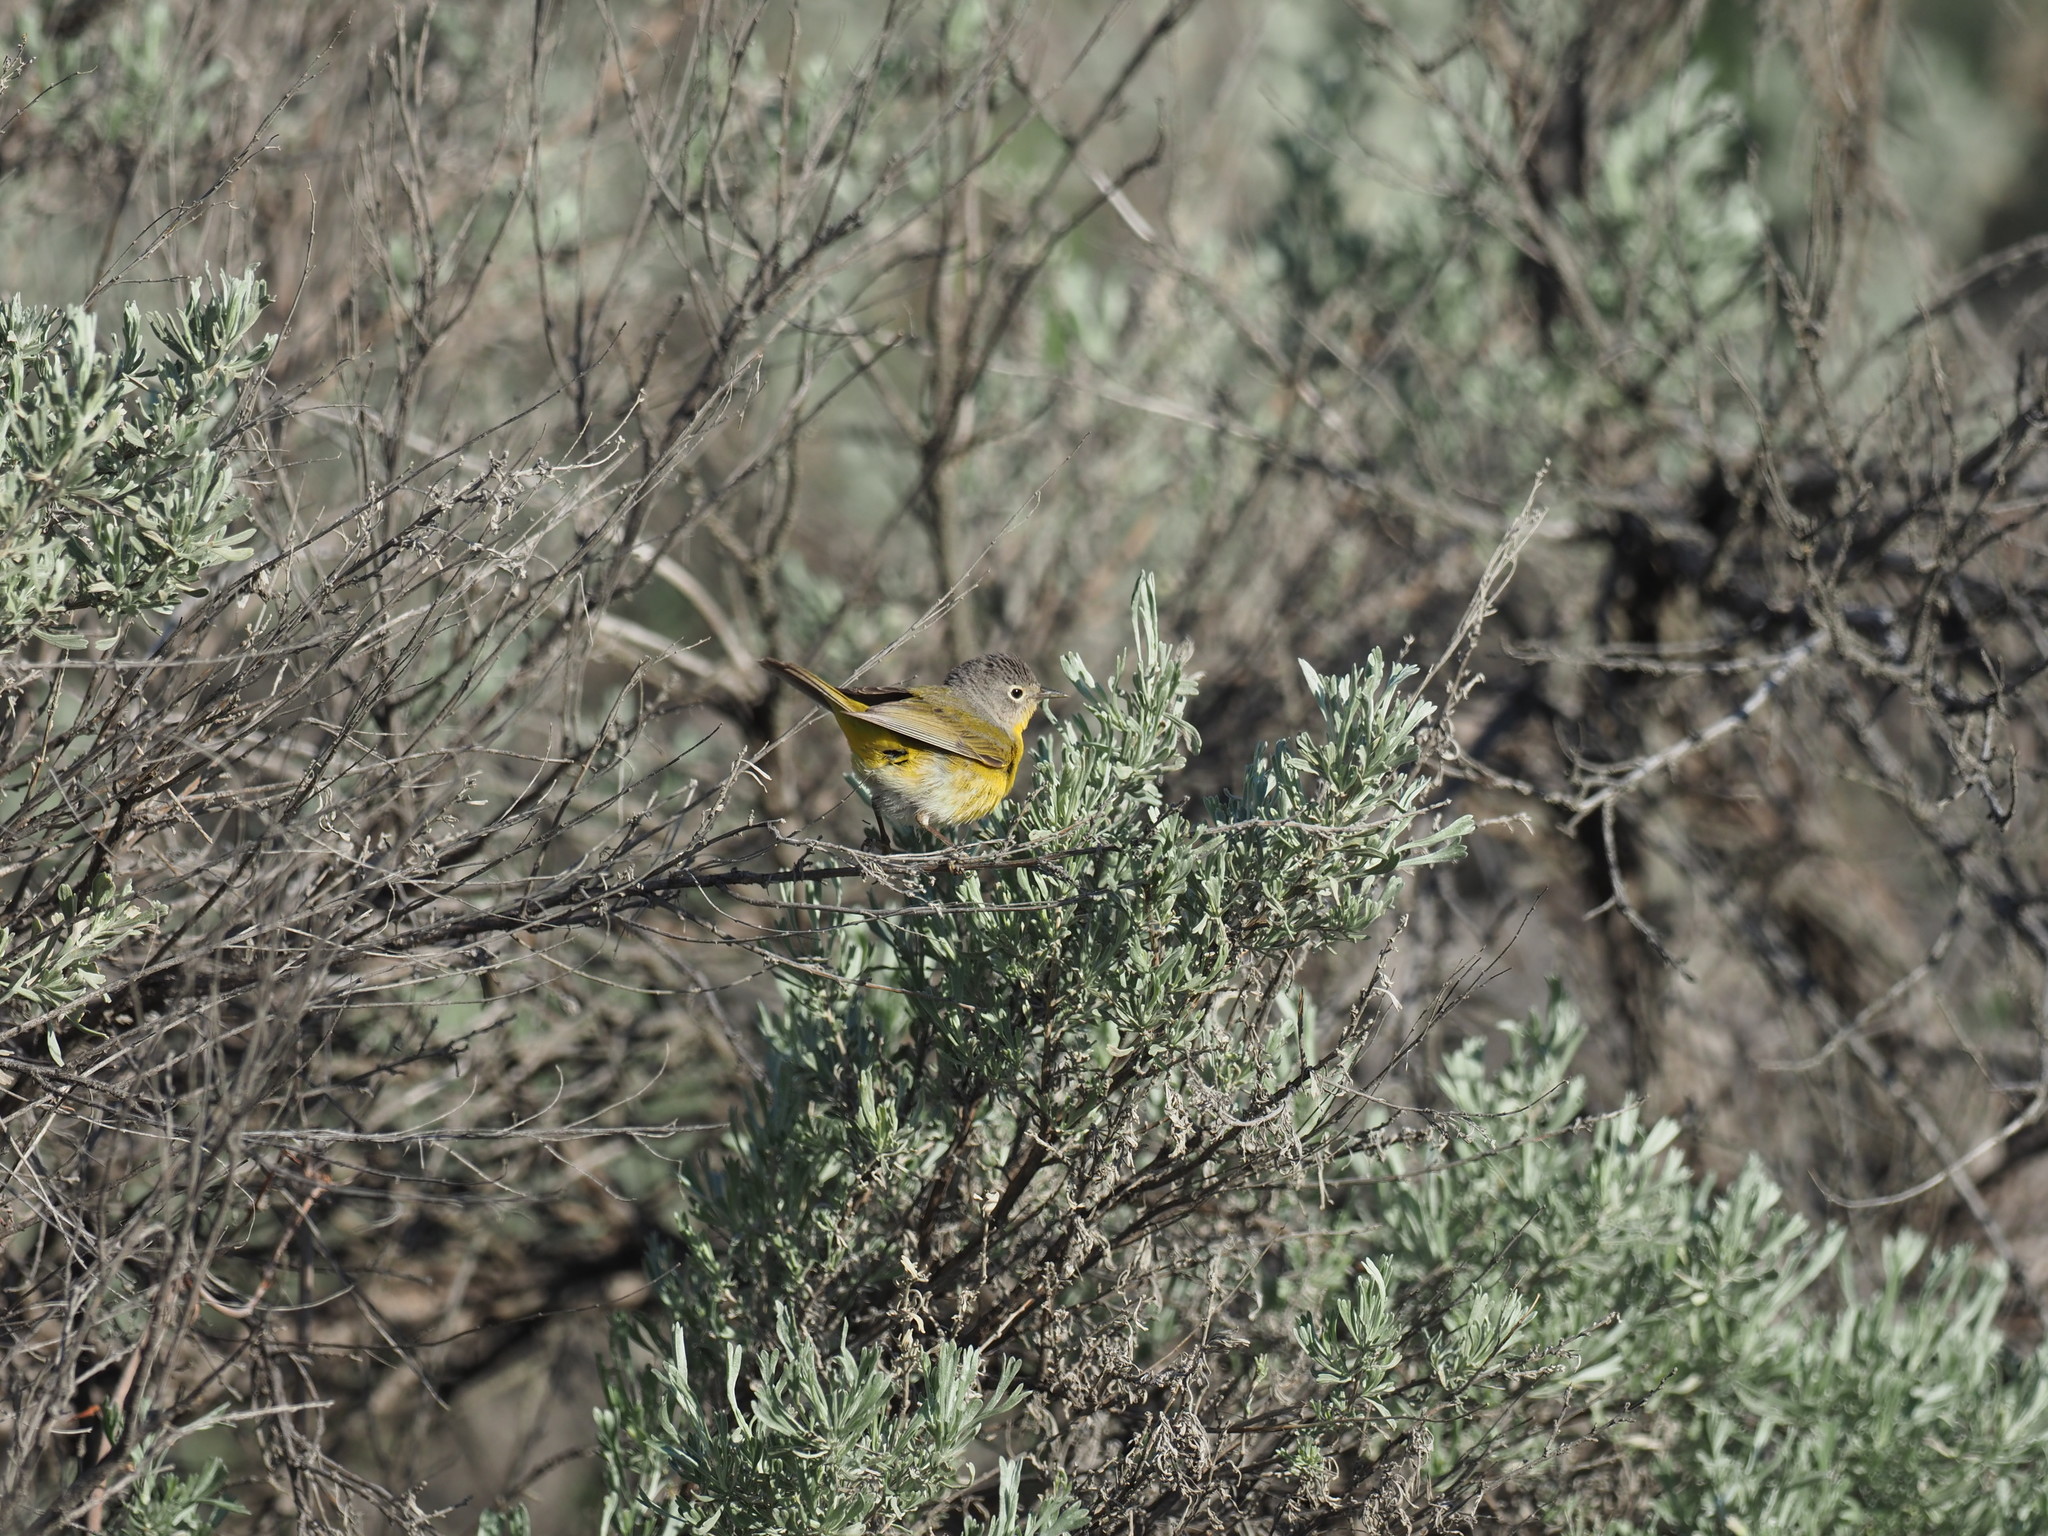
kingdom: Animalia
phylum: Chordata
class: Aves
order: Passeriformes
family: Parulidae
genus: Leiothlypis
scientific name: Leiothlypis ruficapilla
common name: Nashville warbler
